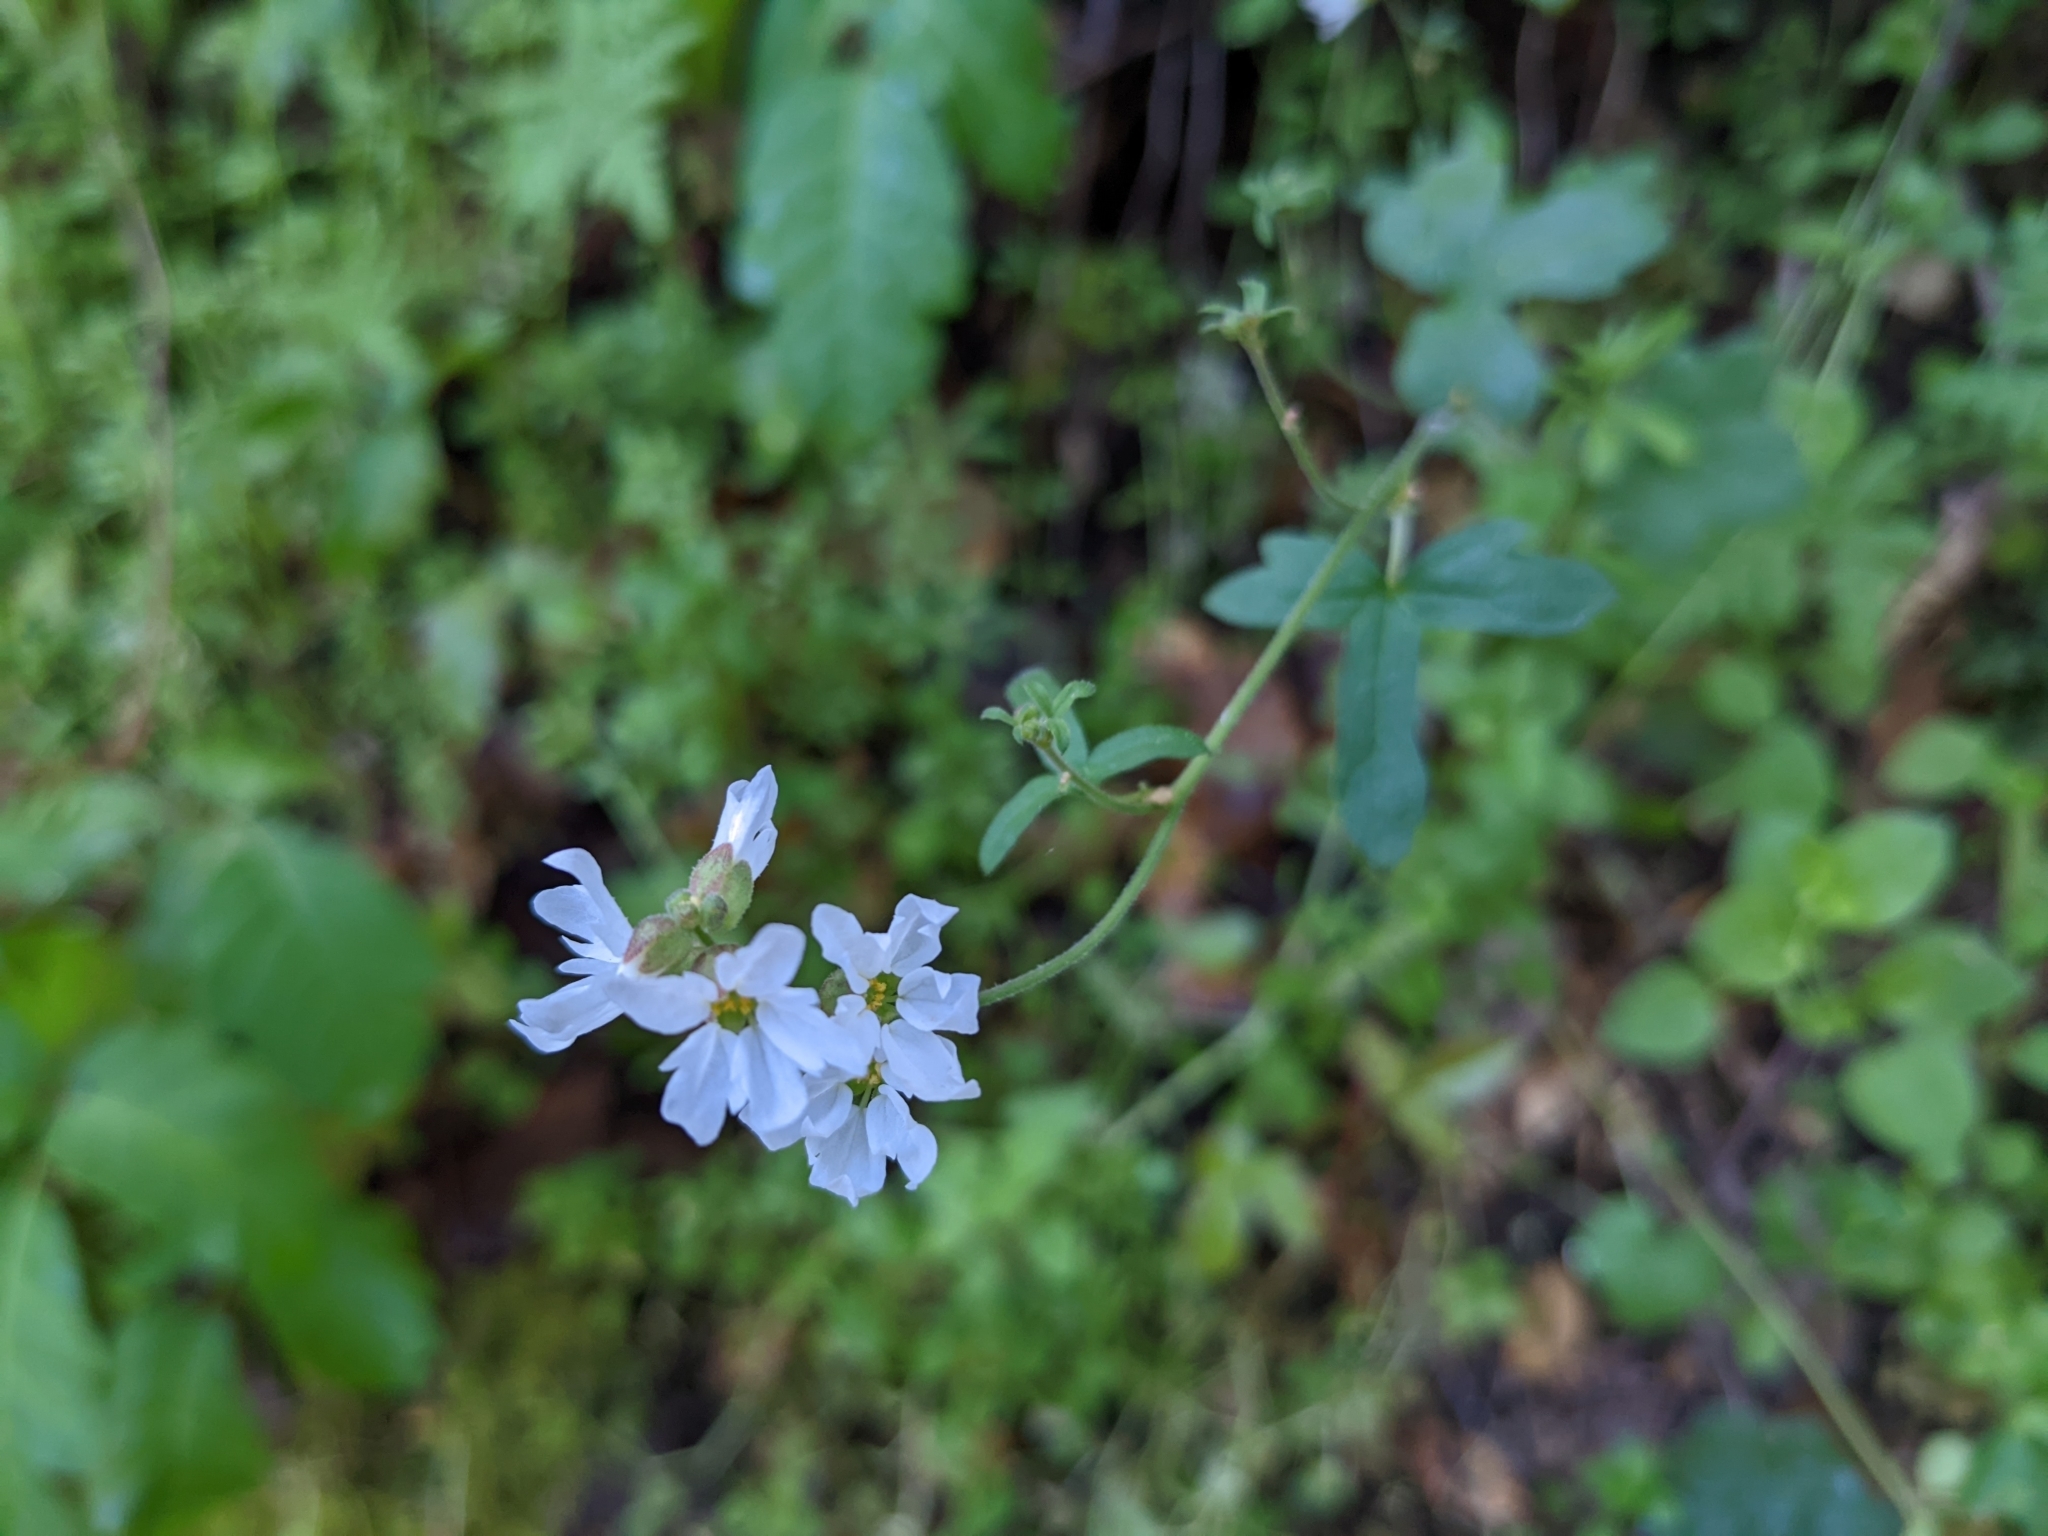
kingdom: Plantae
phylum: Tracheophyta
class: Magnoliopsida
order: Saxifragales
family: Saxifragaceae
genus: Lithophragma
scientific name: Lithophragma heterophyllum
